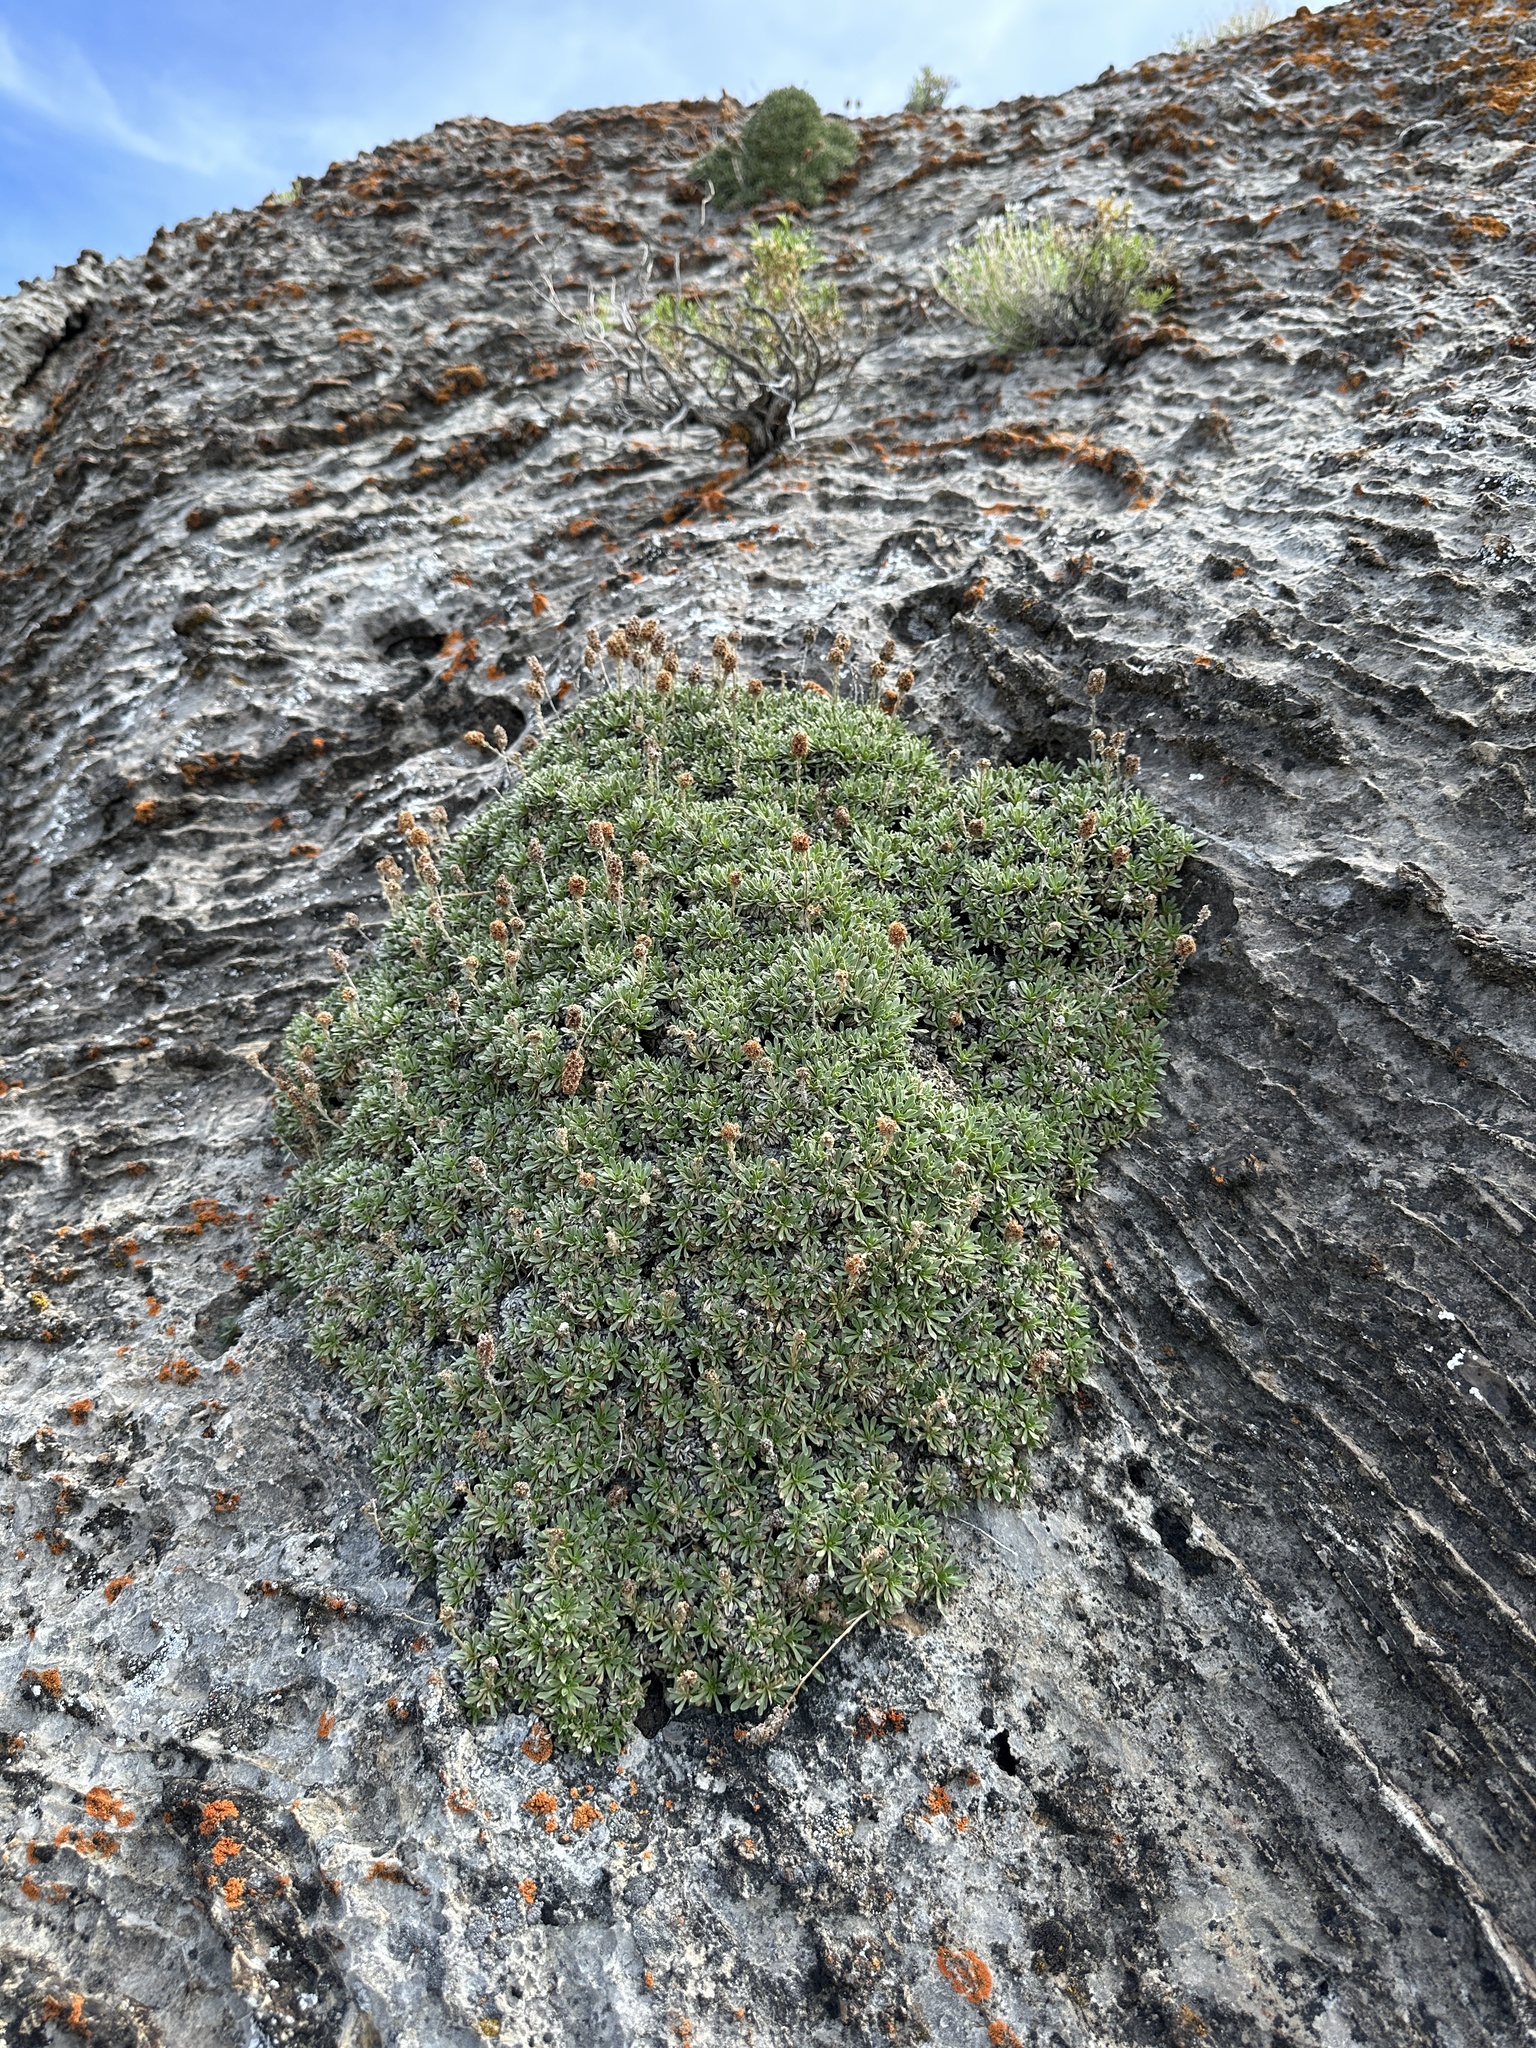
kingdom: Plantae
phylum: Tracheophyta
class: Magnoliopsida
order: Rosales
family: Rosaceae
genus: Petrophytum
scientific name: Petrophytum caespitosum
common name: Mat rockspirea
